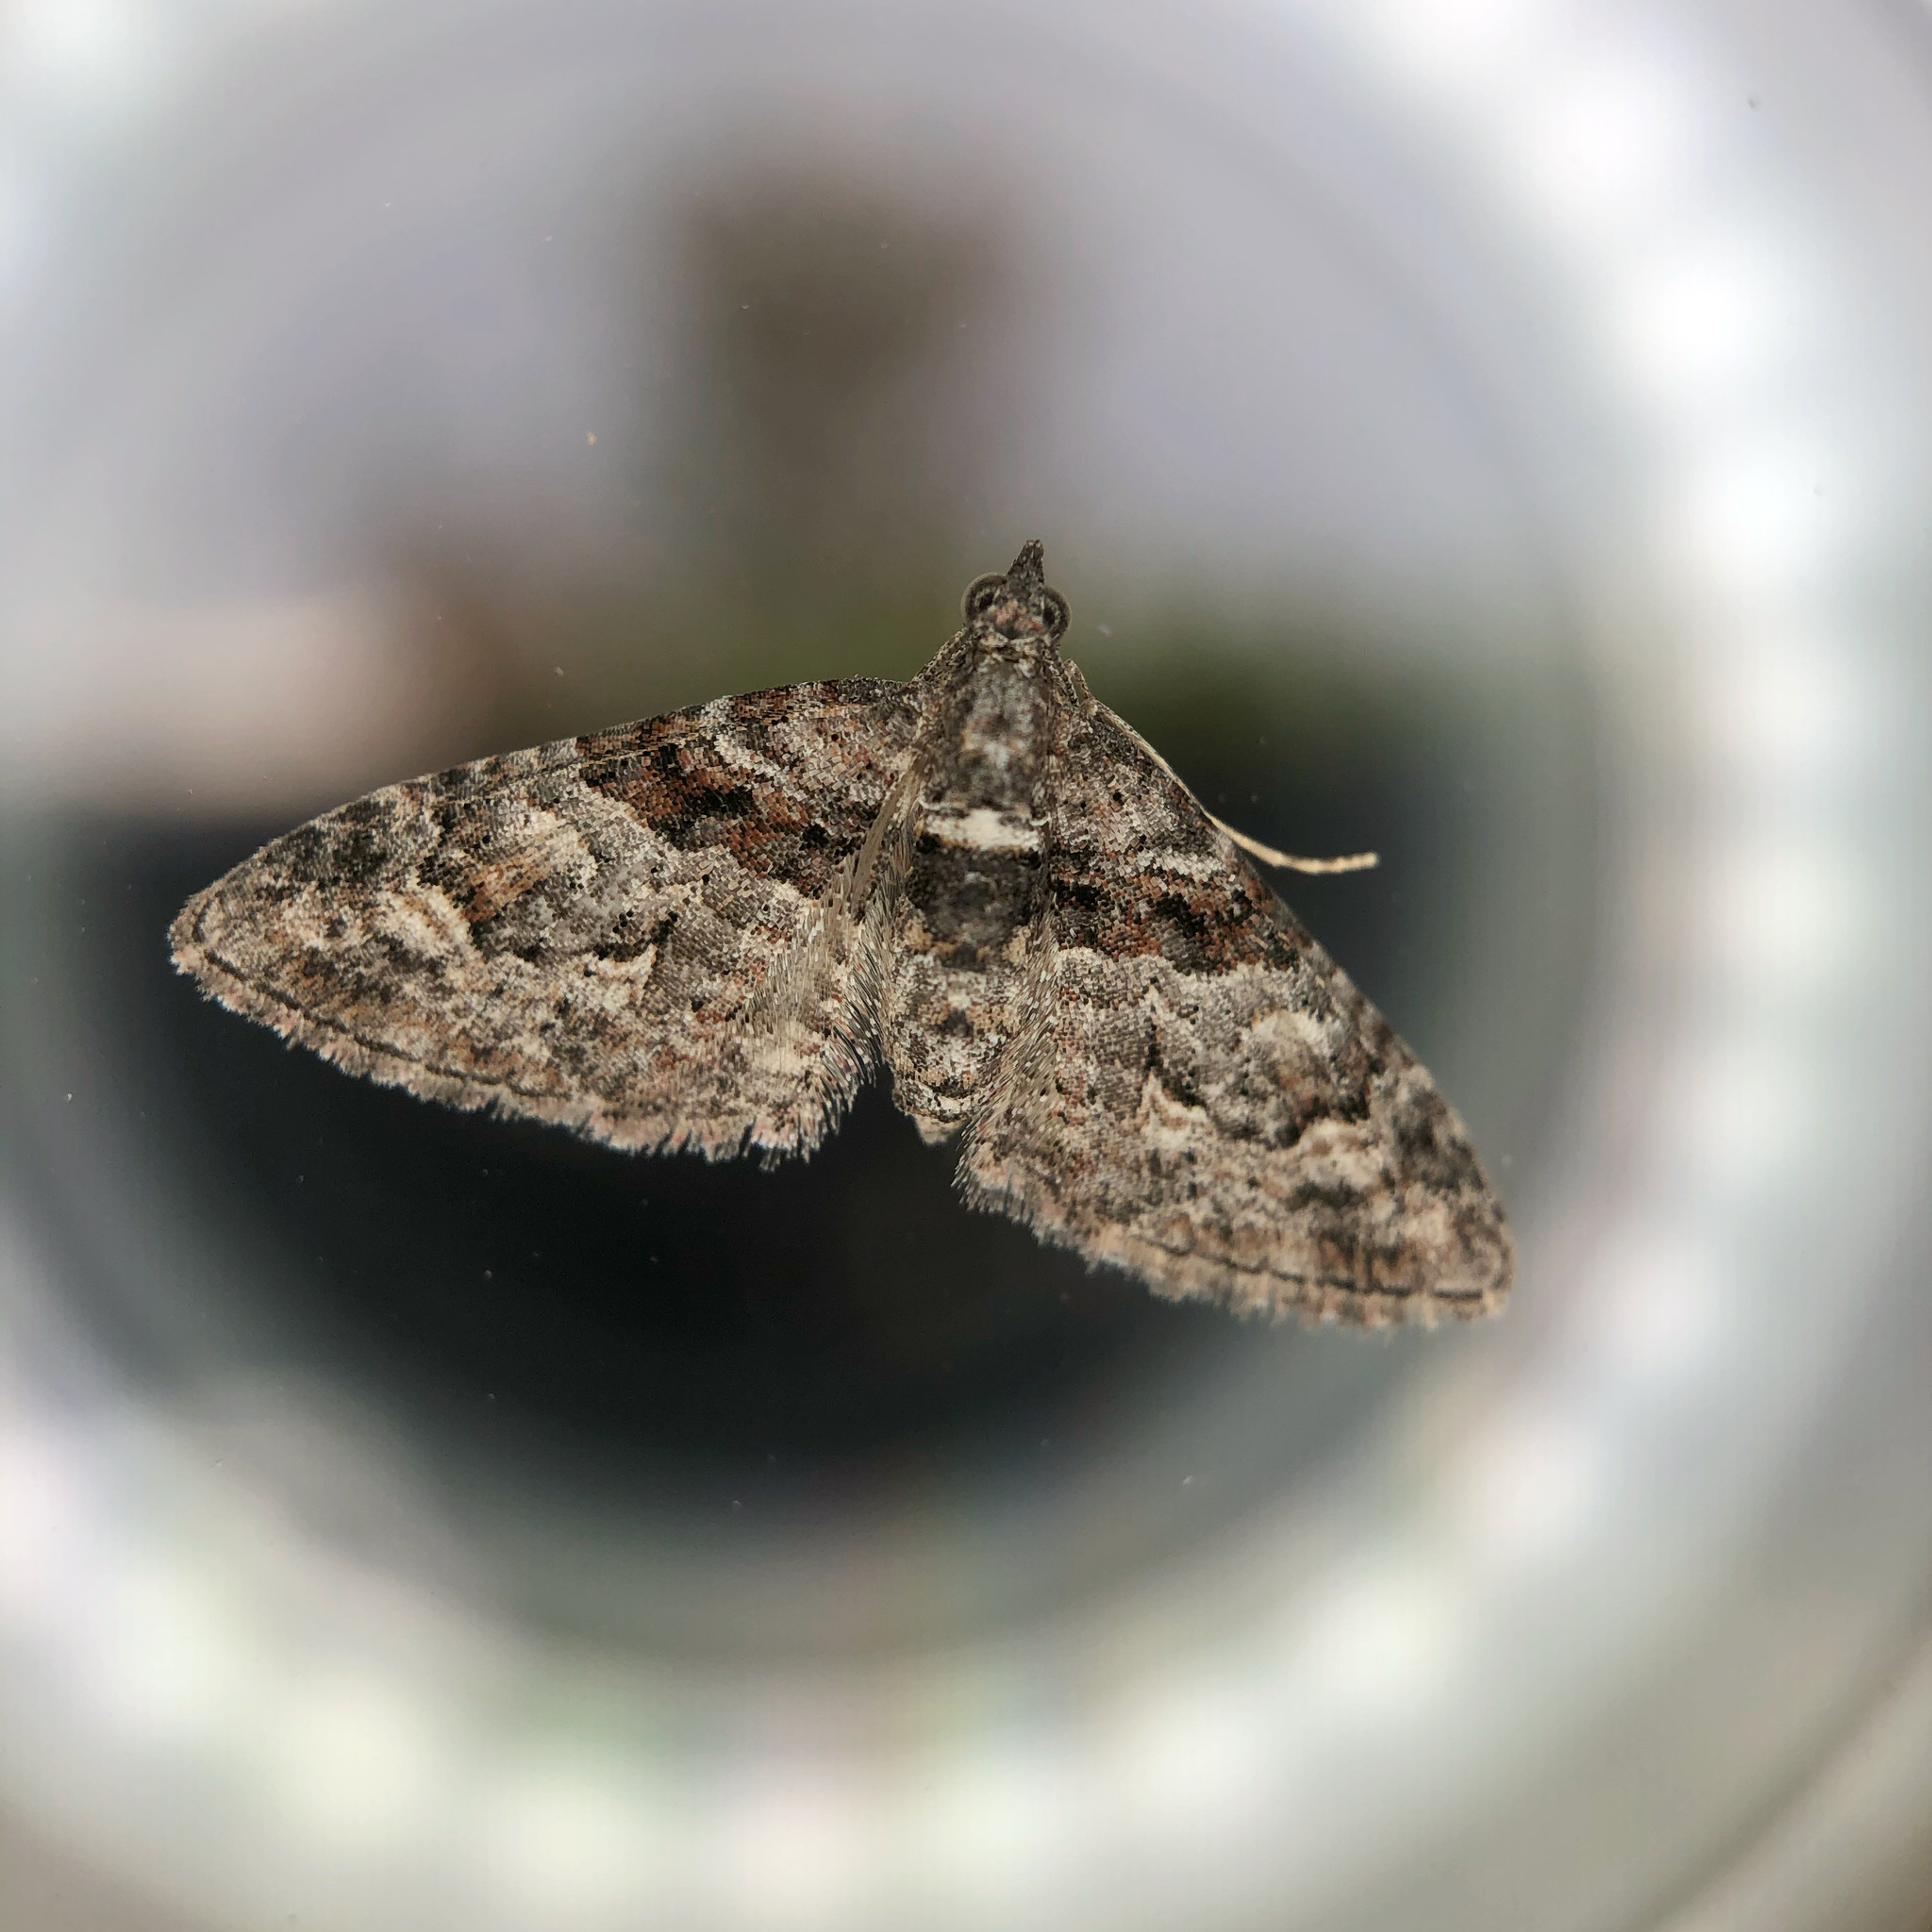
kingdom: Animalia
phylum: Arthropoda
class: Insecta
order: Lepidoptera
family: Geometridae
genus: Phrissogonus
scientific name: Phrissogonus laticostata
